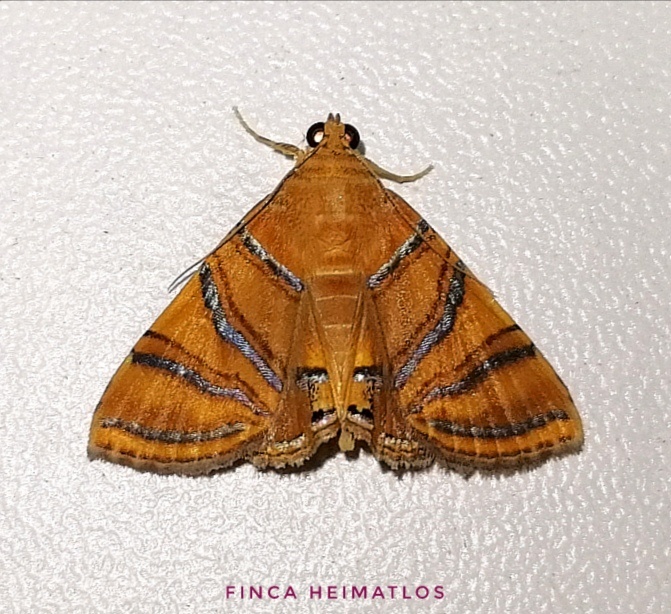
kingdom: Animalia
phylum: Arthropoda
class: Insecta
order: Lepidoptera
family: Erebidae
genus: Eulepidotis
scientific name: Eulepidotis inclyta
